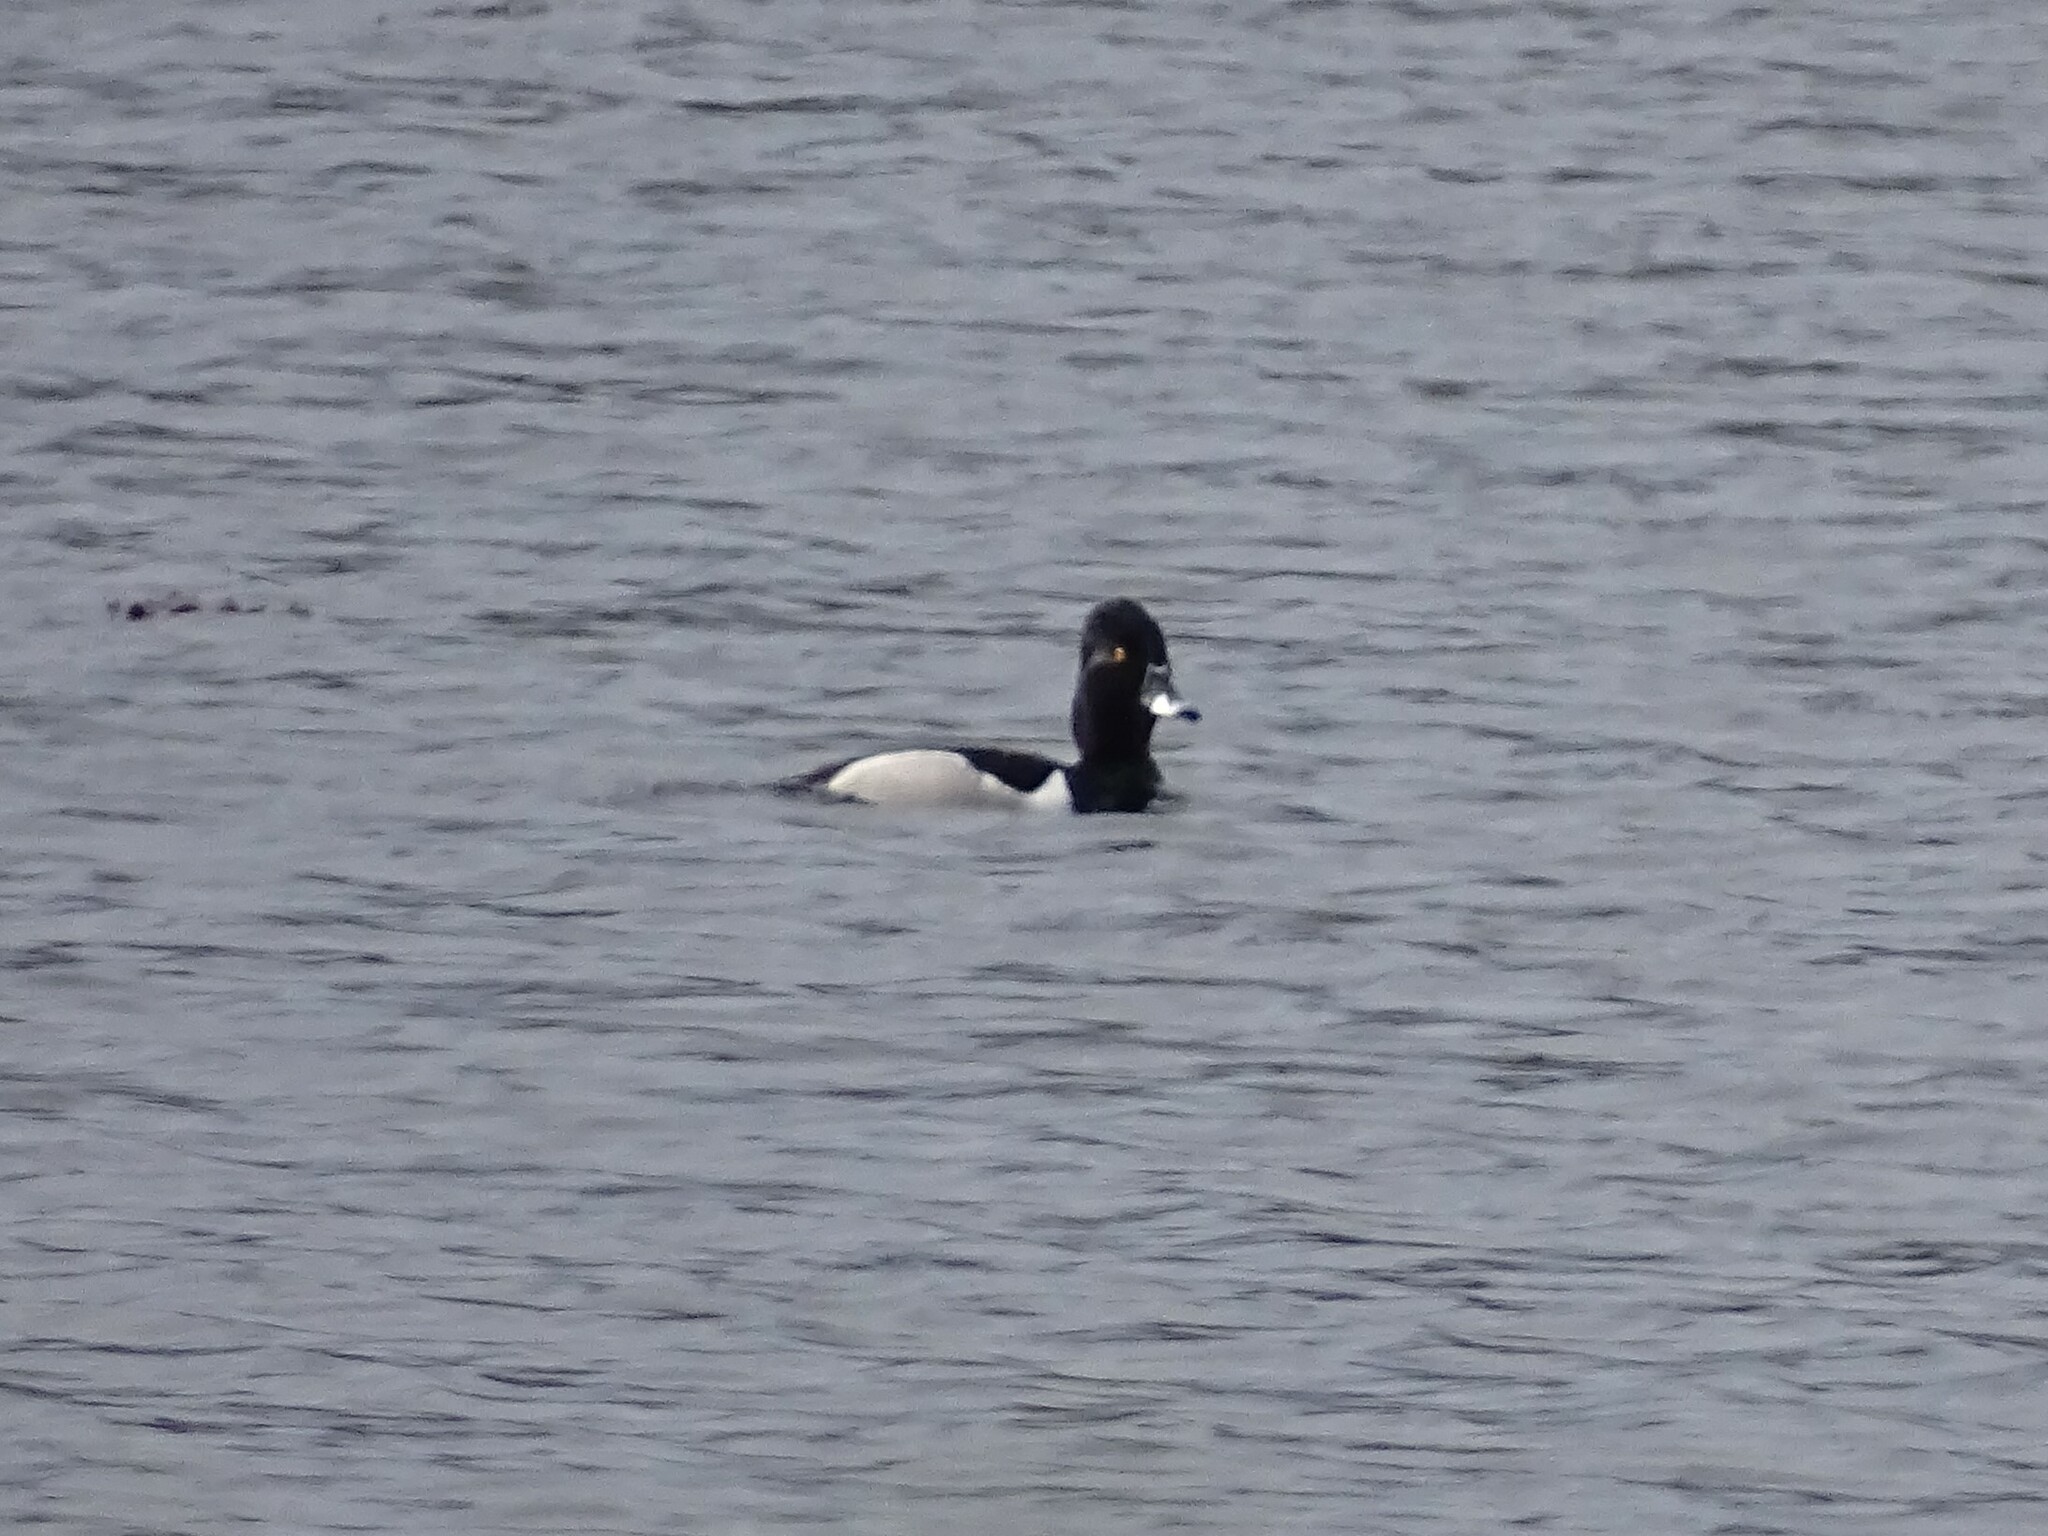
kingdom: Animalia
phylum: Chordata
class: Aves
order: Anseriformes
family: Anatidae
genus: Aythya
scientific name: Aythya collaris
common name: Ring-necked duck
